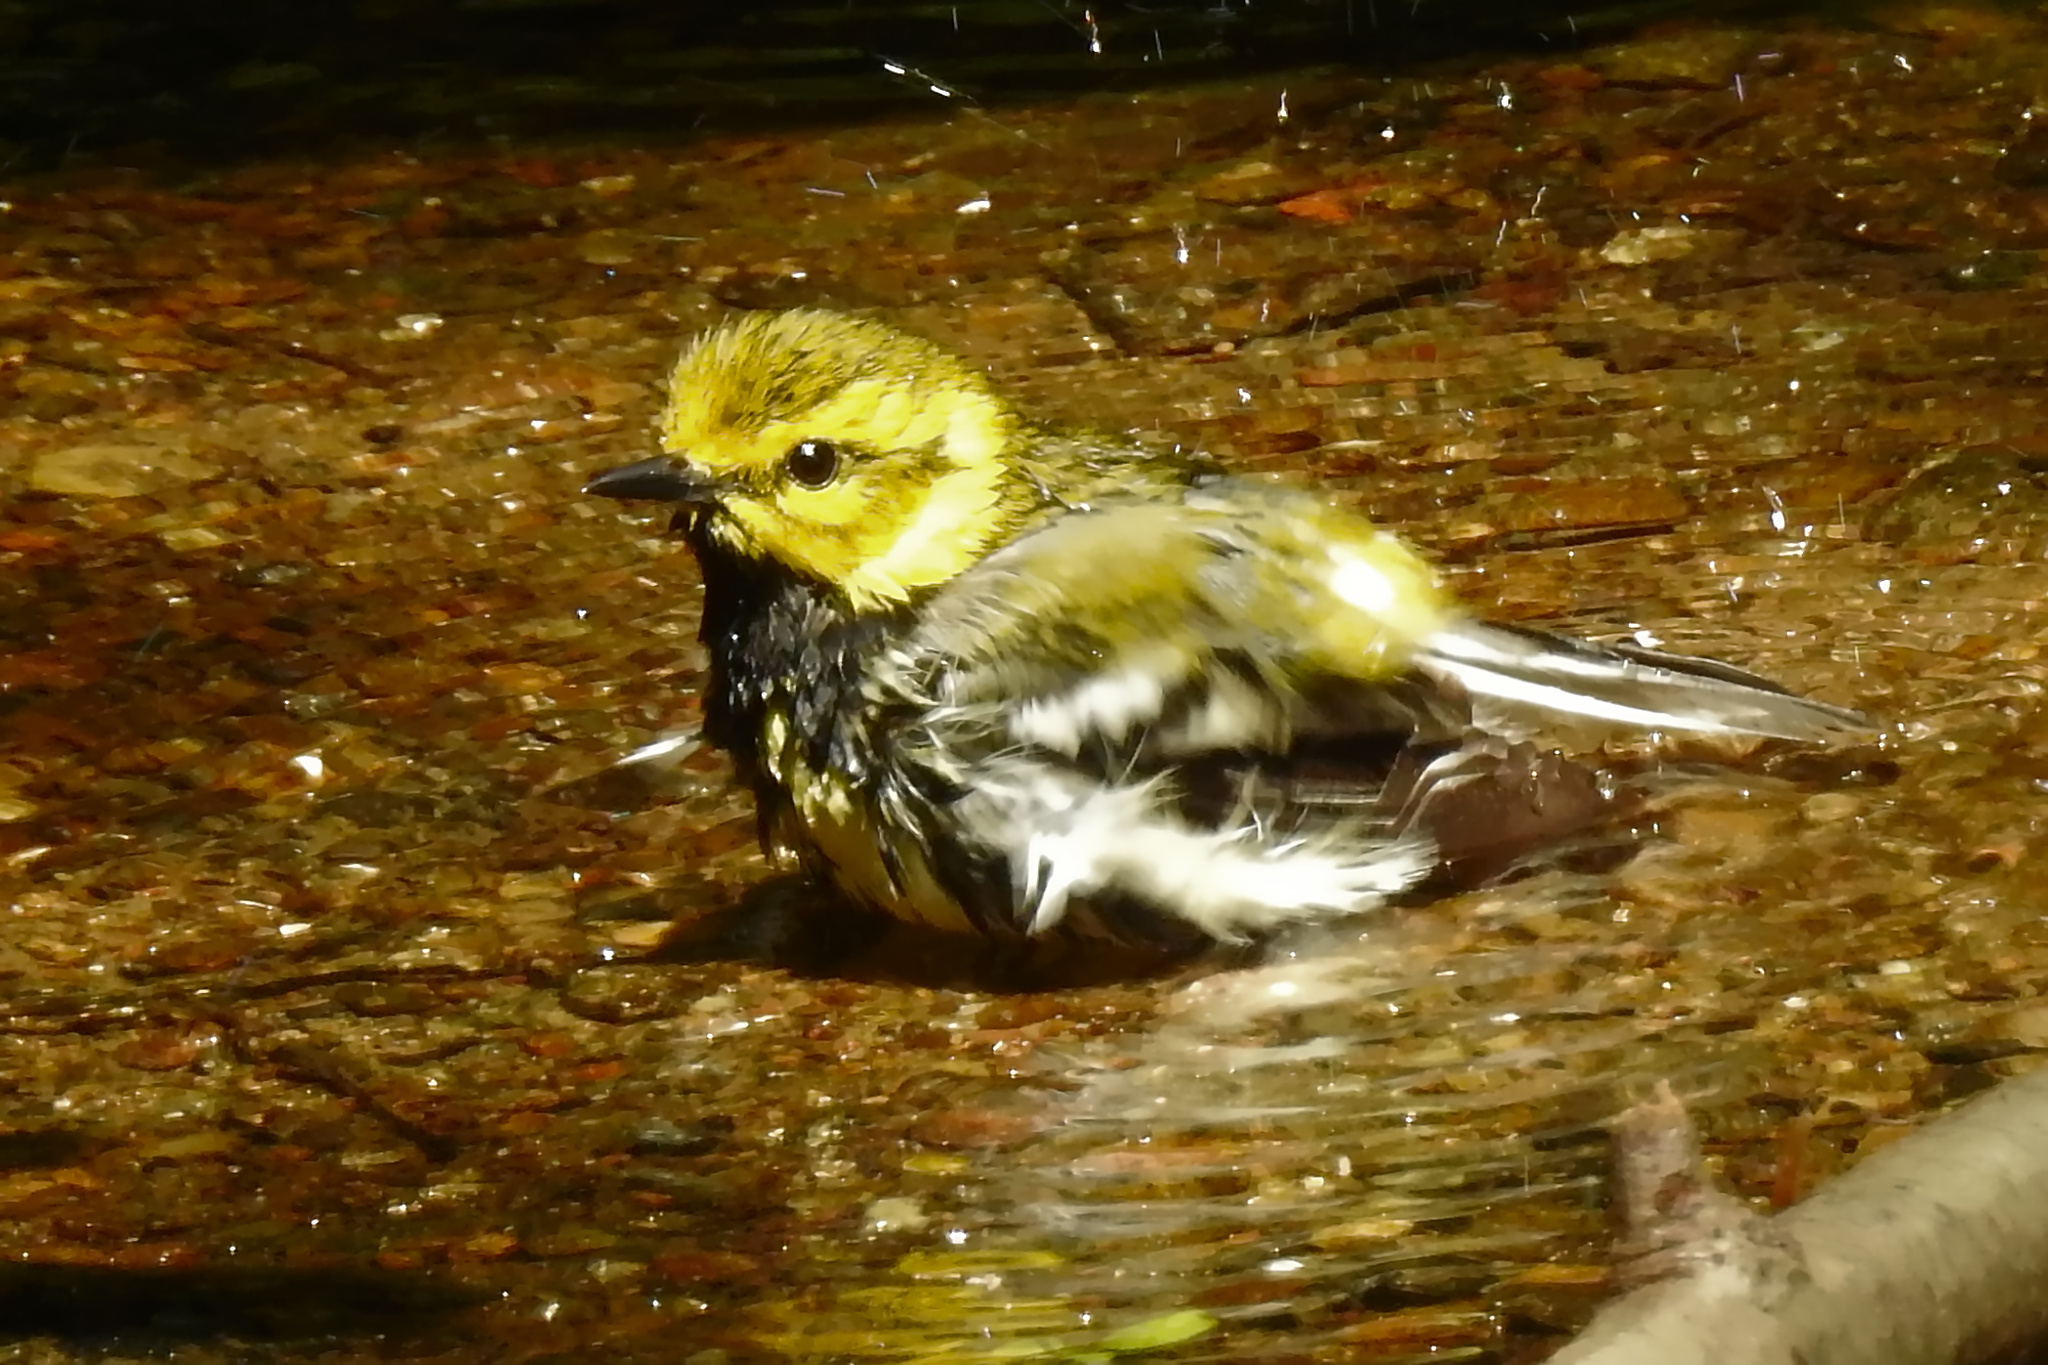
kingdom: Animalia
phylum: Chordata
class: Aves
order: Passeriformes
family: Parulidae
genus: Setophaga
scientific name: Setophaga virens
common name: Black-throated green warbler
